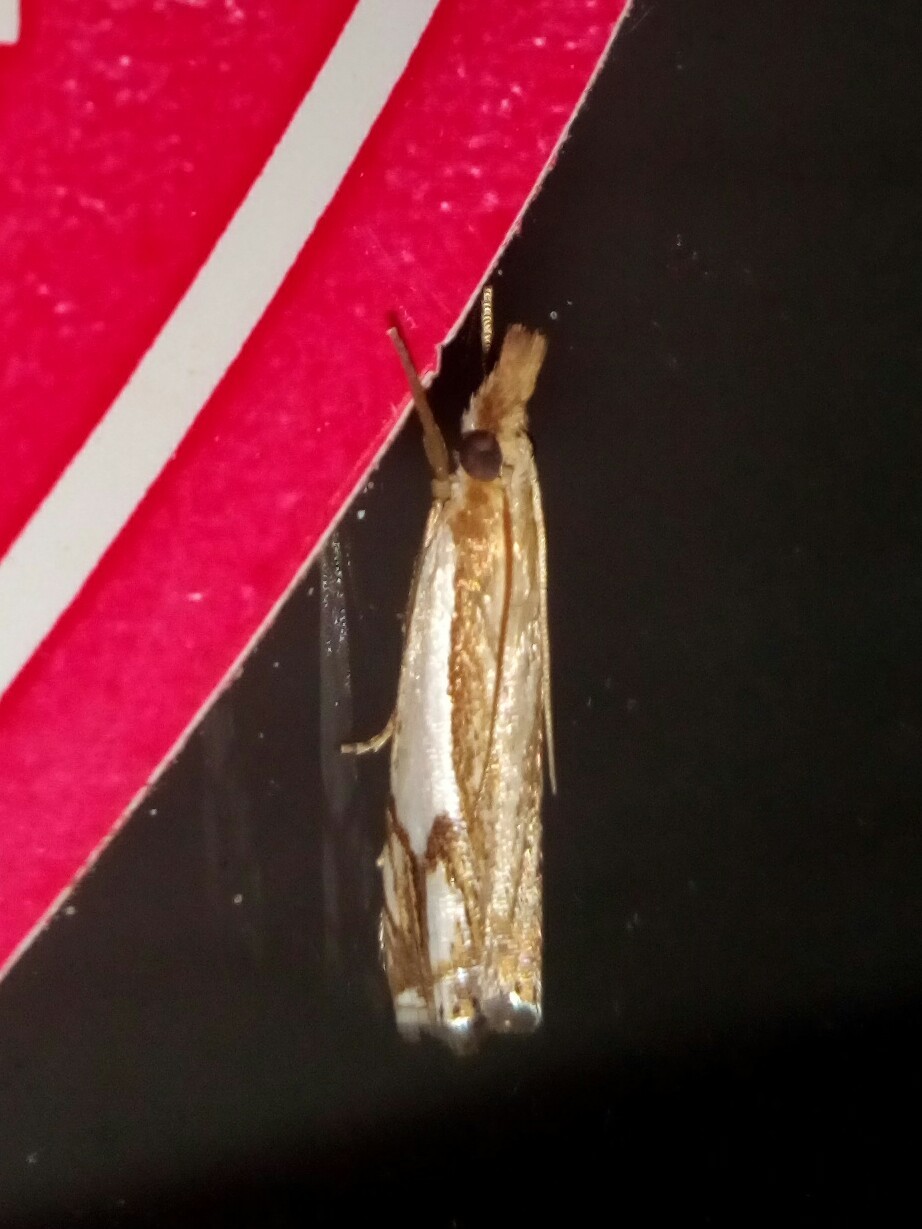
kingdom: Animalia
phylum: Arthropoda
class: Insecta
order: Lepidoptera
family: Crambidae
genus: Crambus
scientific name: Crambus agitatellus
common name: Double-banded grass-veneer
